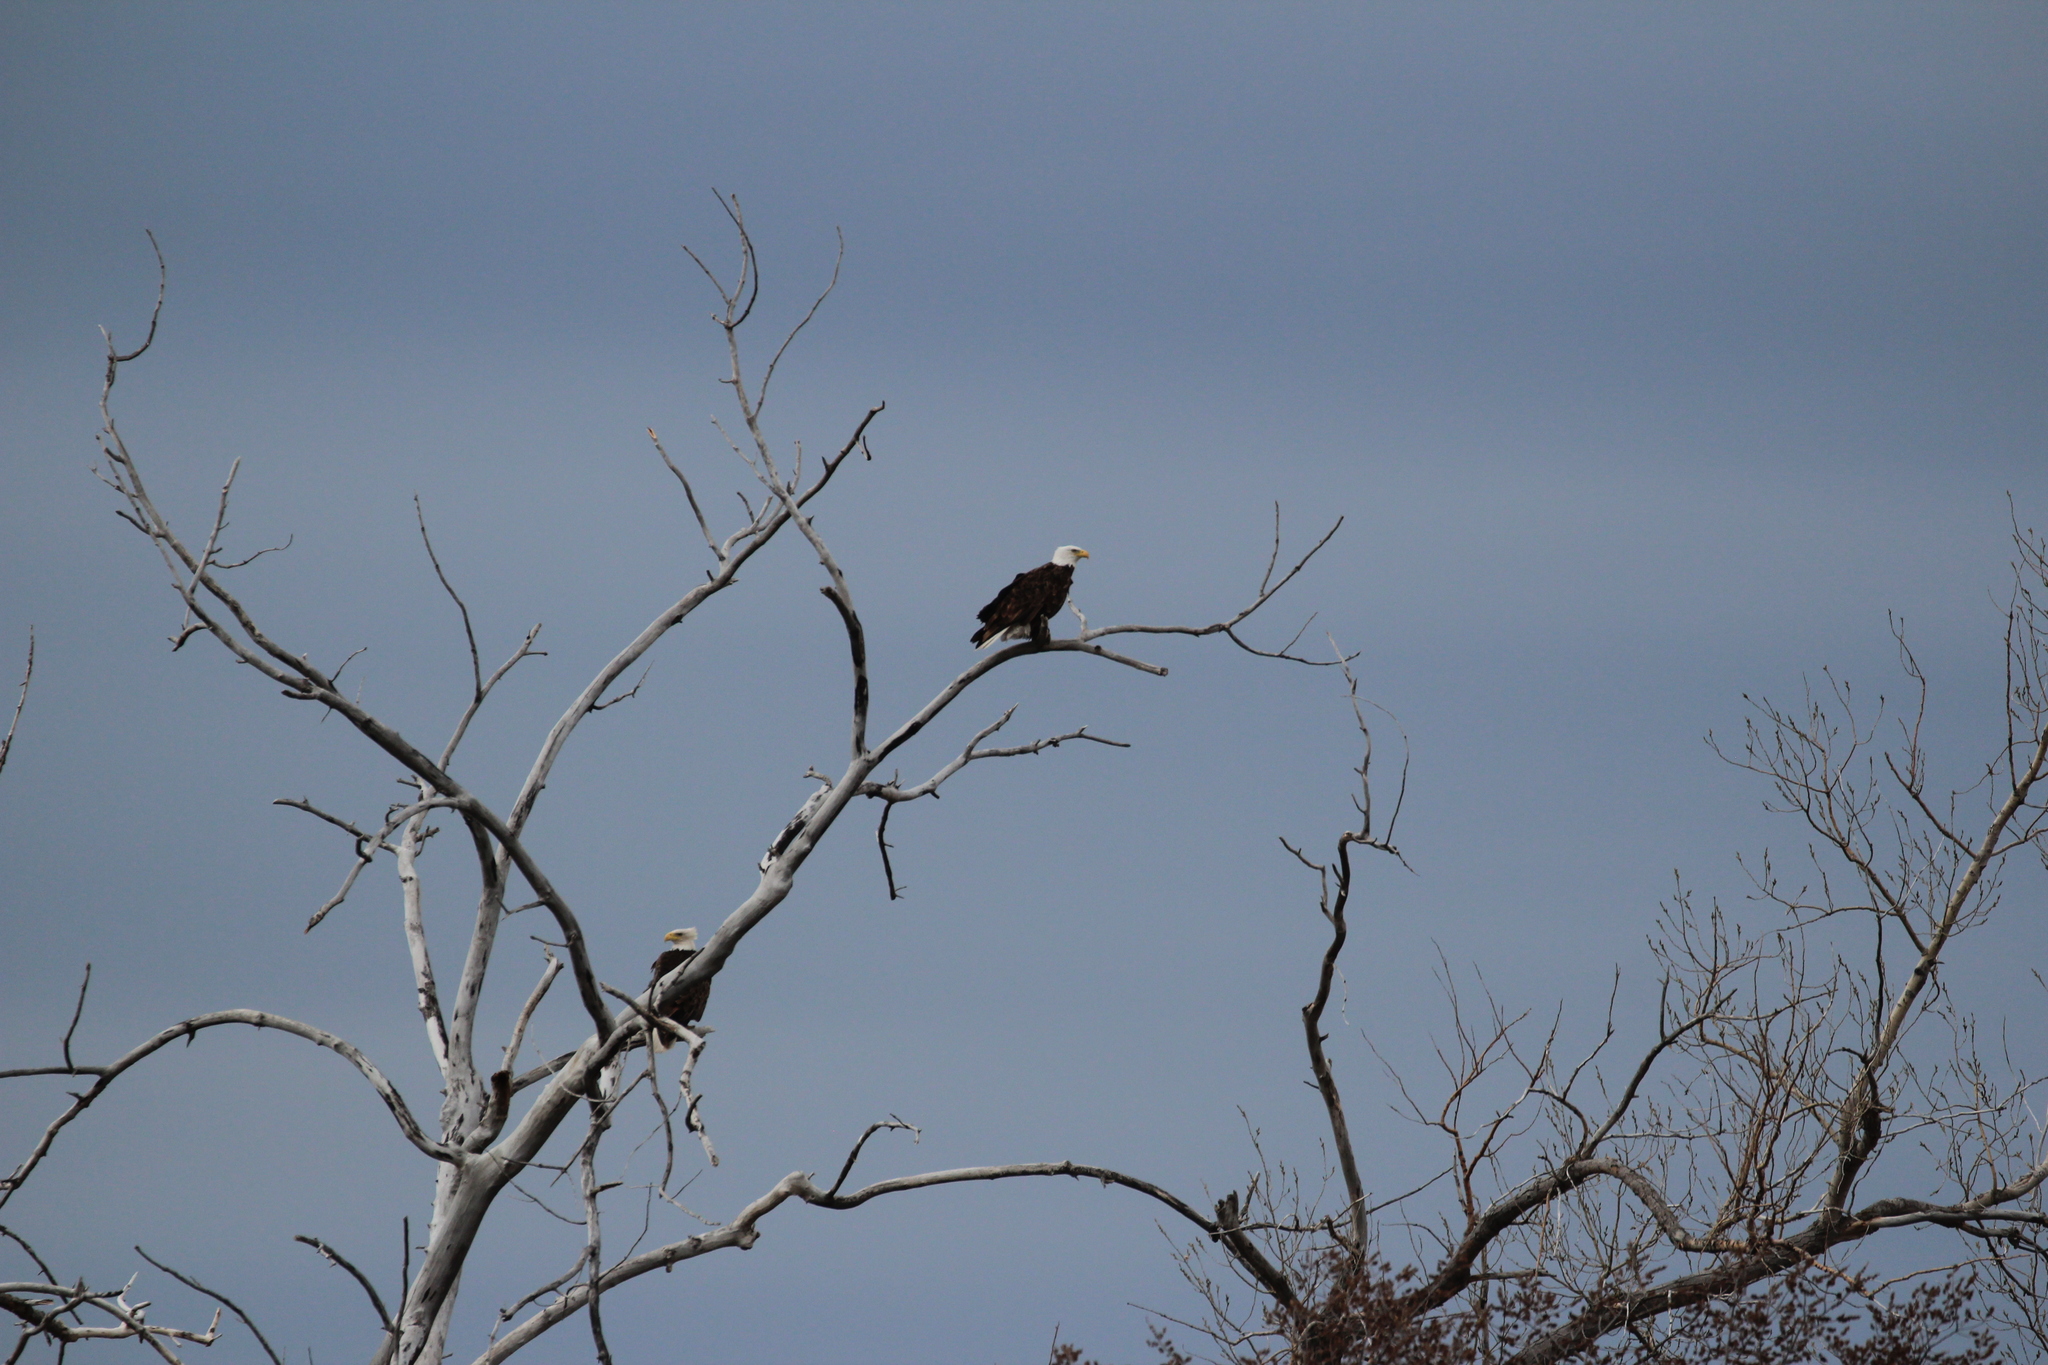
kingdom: Animalia
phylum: Chordata
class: Aves
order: Accipitriformes
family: Accipitridae
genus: Haliaeetus
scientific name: Haliaeetus leucocephalus
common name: Bald eagle
